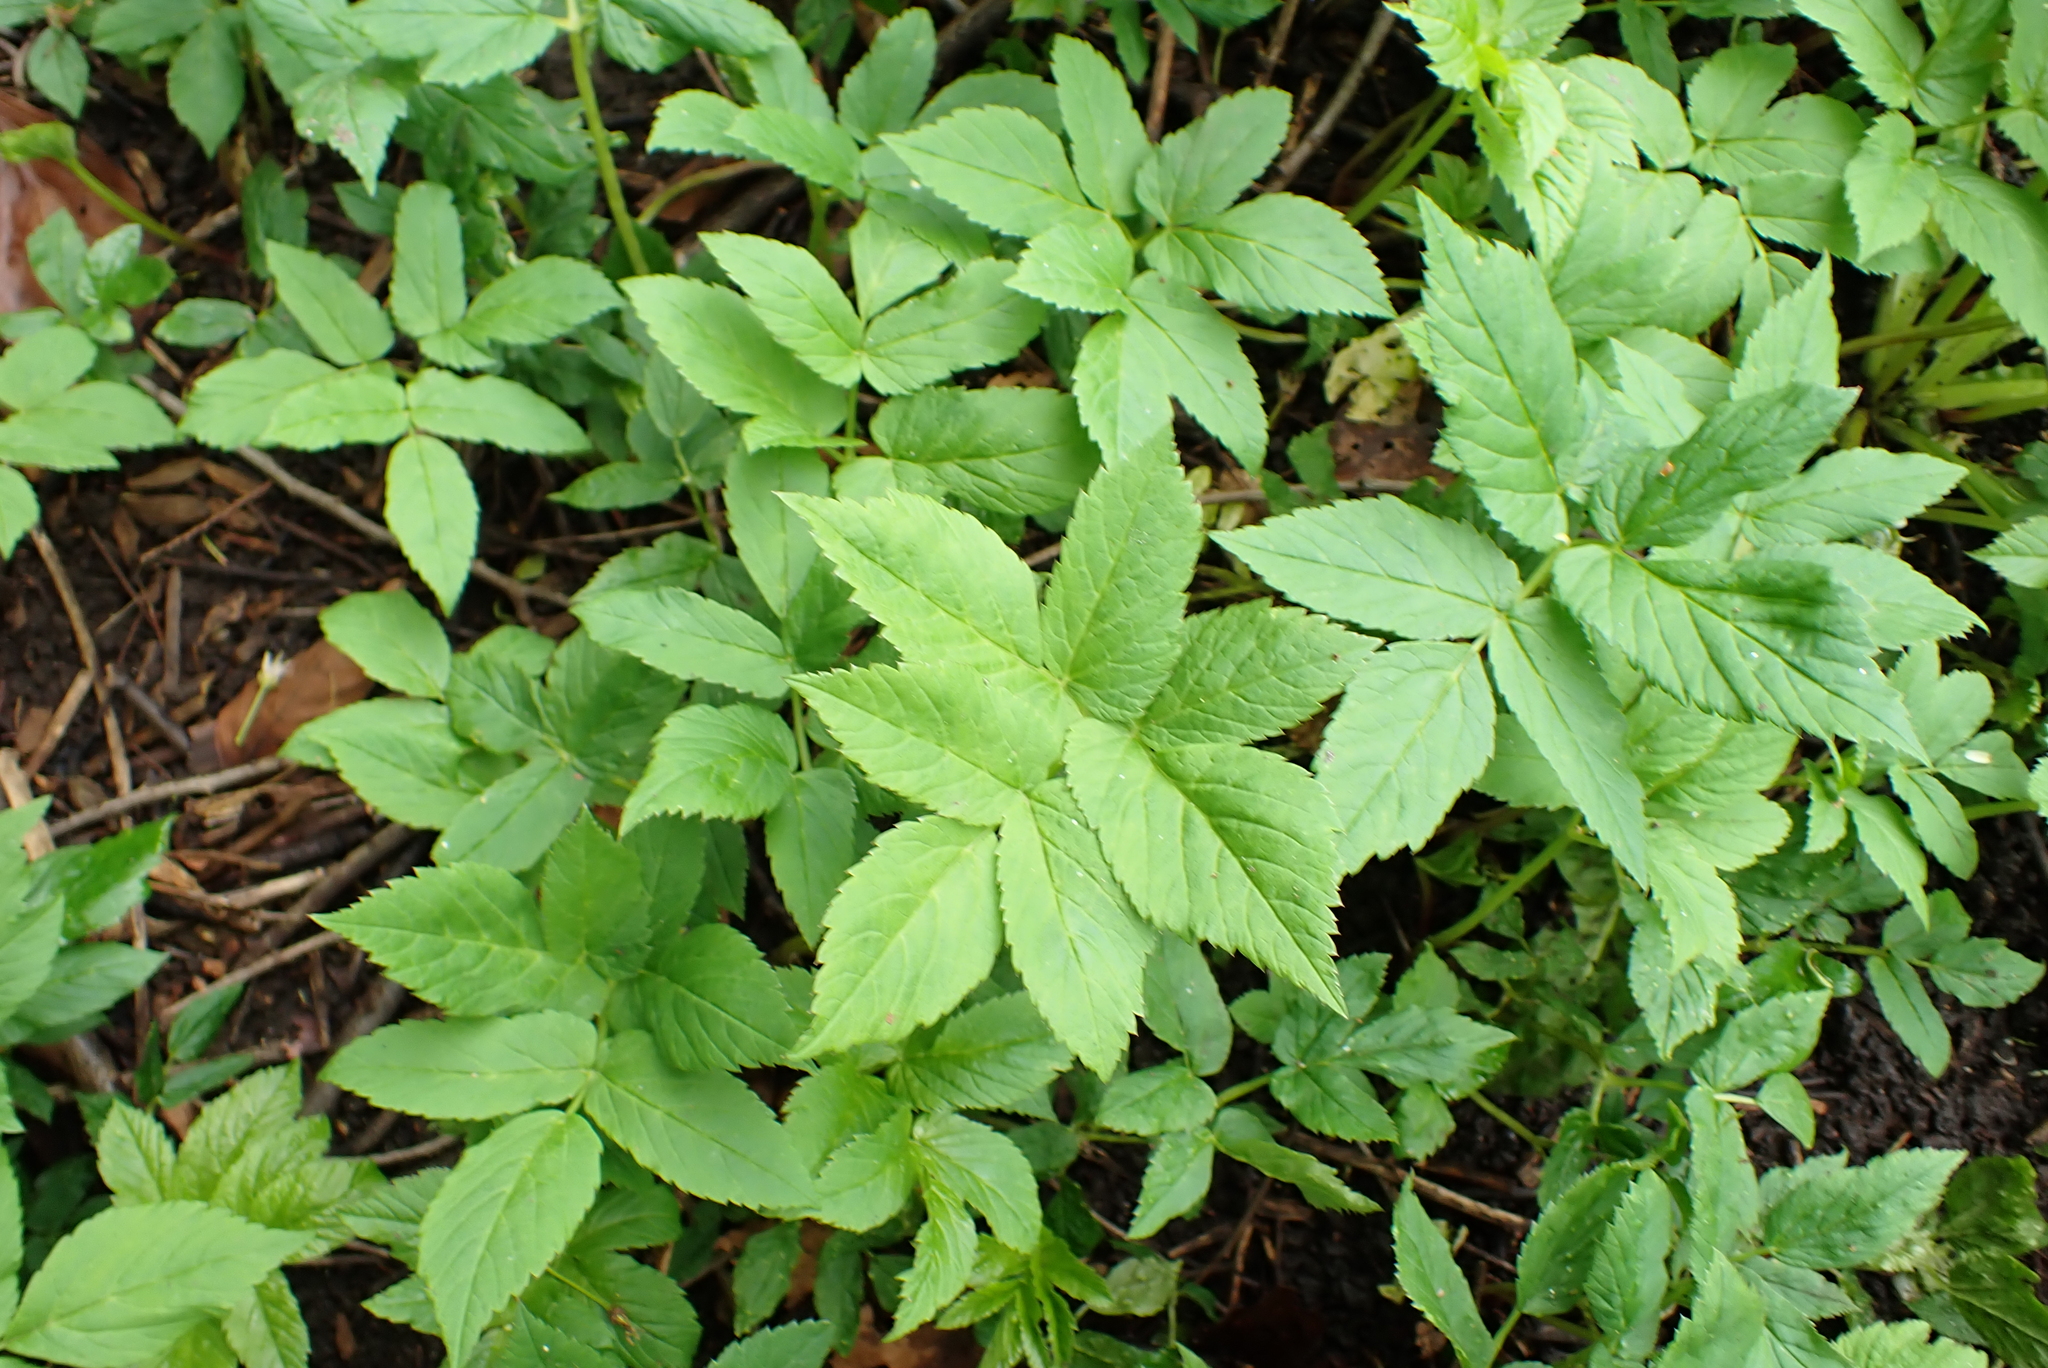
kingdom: Plantae
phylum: Tracheophyta
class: Magnoliopsida
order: Apiales
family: Apiaceae
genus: Aegopodium
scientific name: Aegopodium podagraria
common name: Ground-elder
